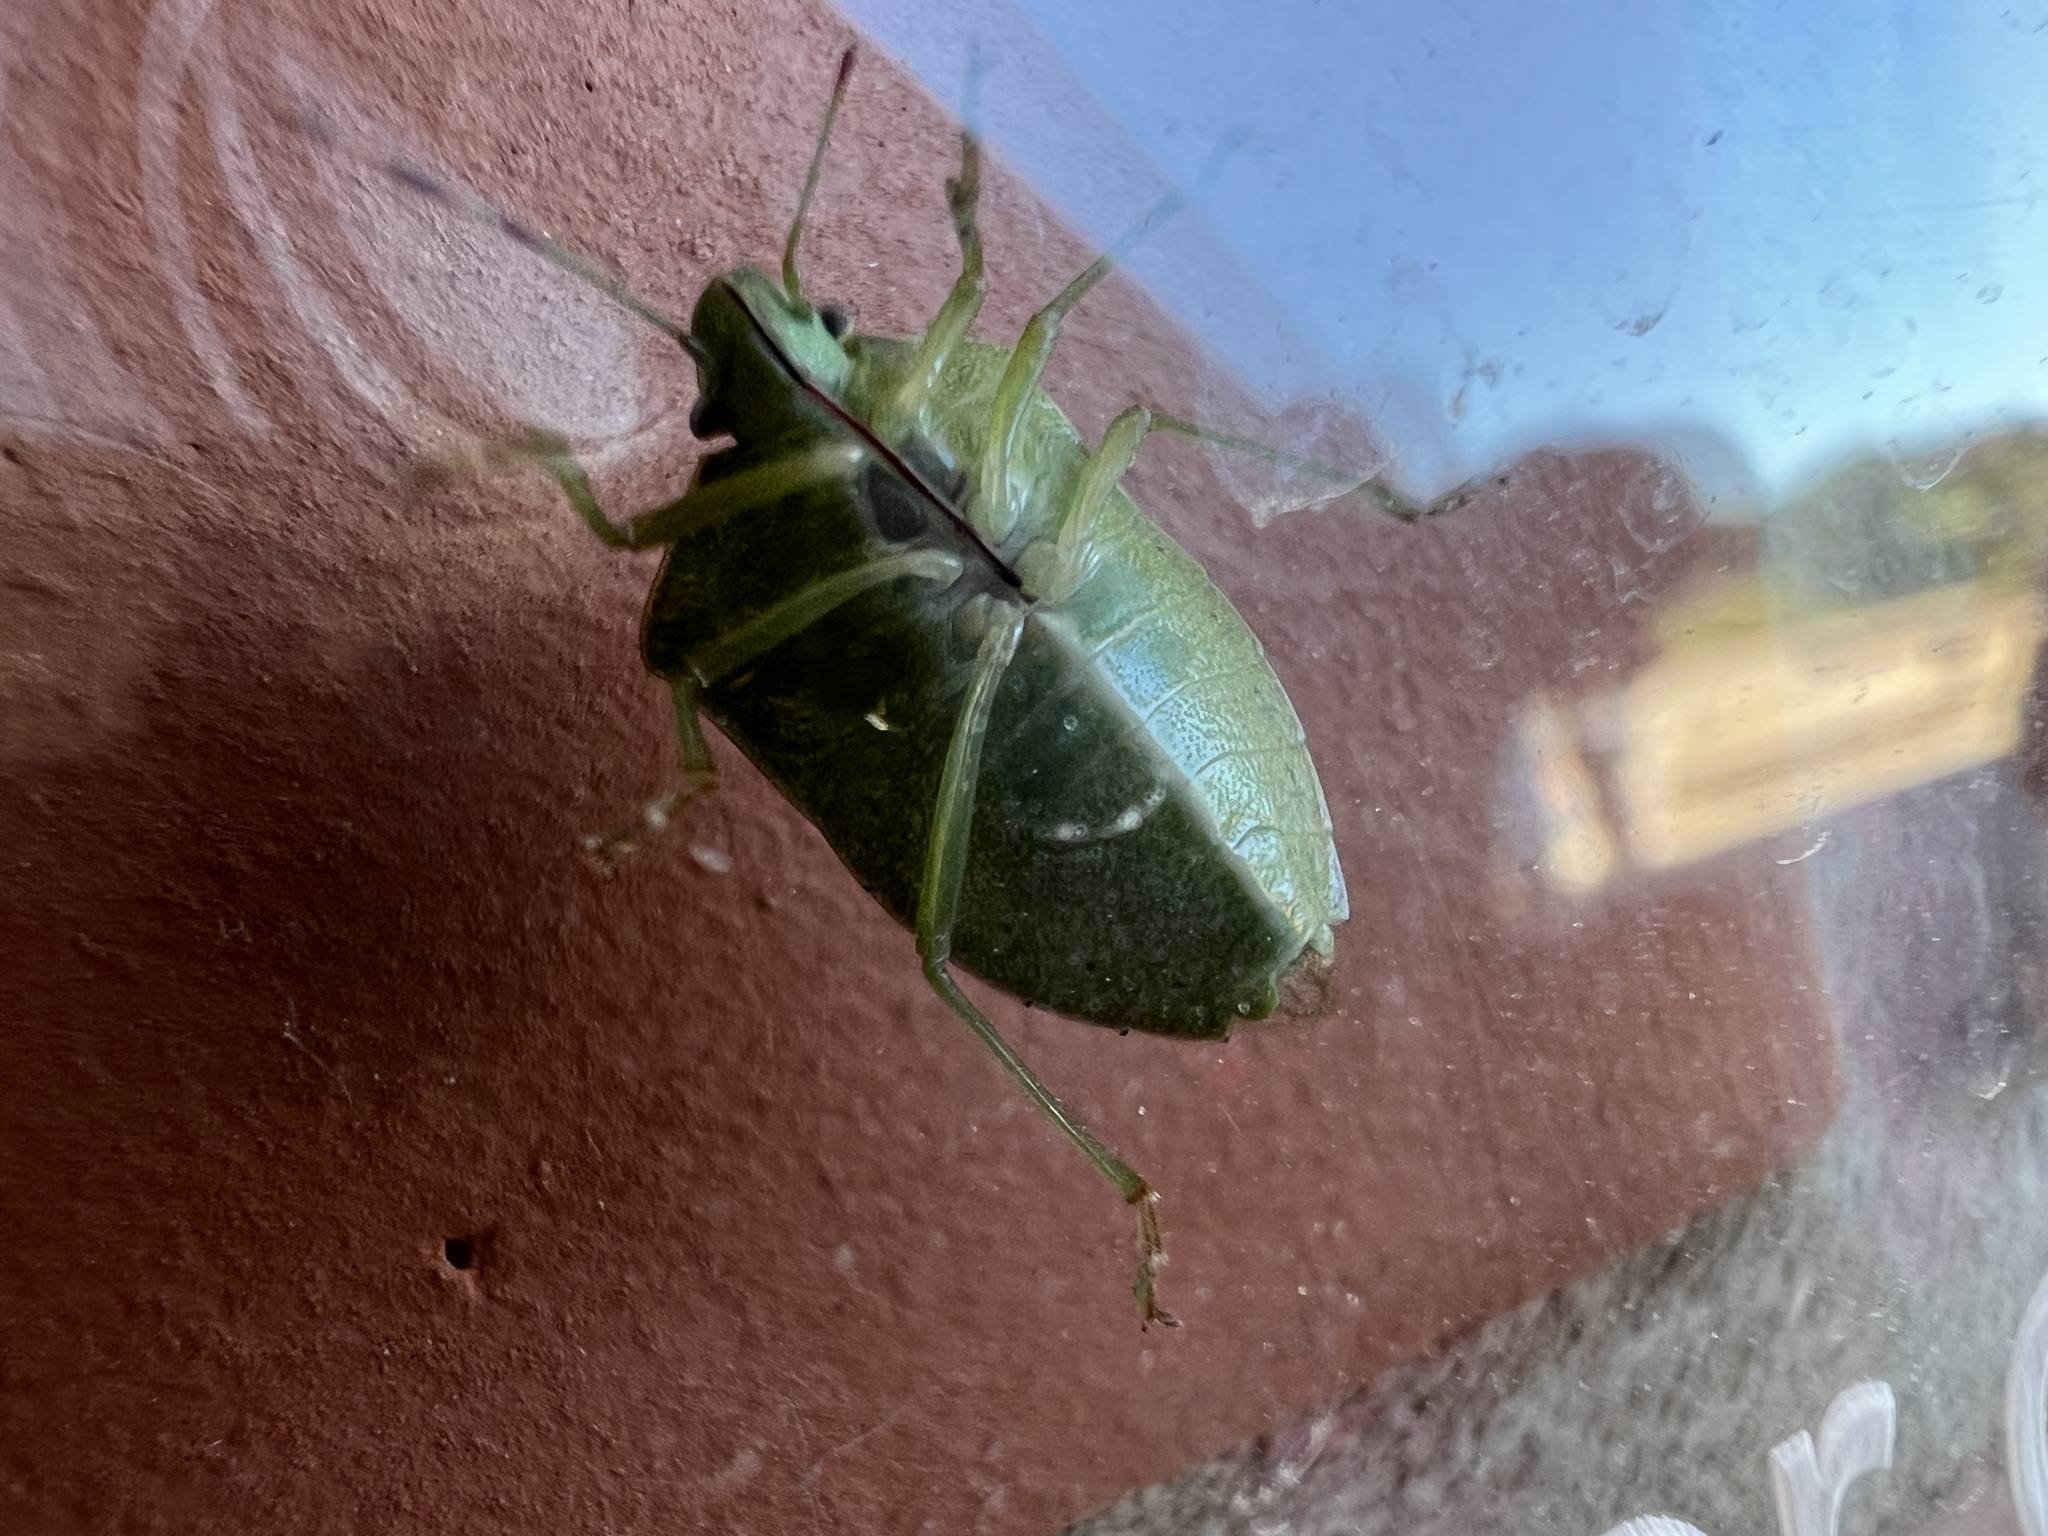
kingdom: Animalia
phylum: Arthropoda
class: Insecta
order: Hemiptera
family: Pentatomidae
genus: Nezara
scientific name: Nezara viridula
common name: Southern green stink bug
